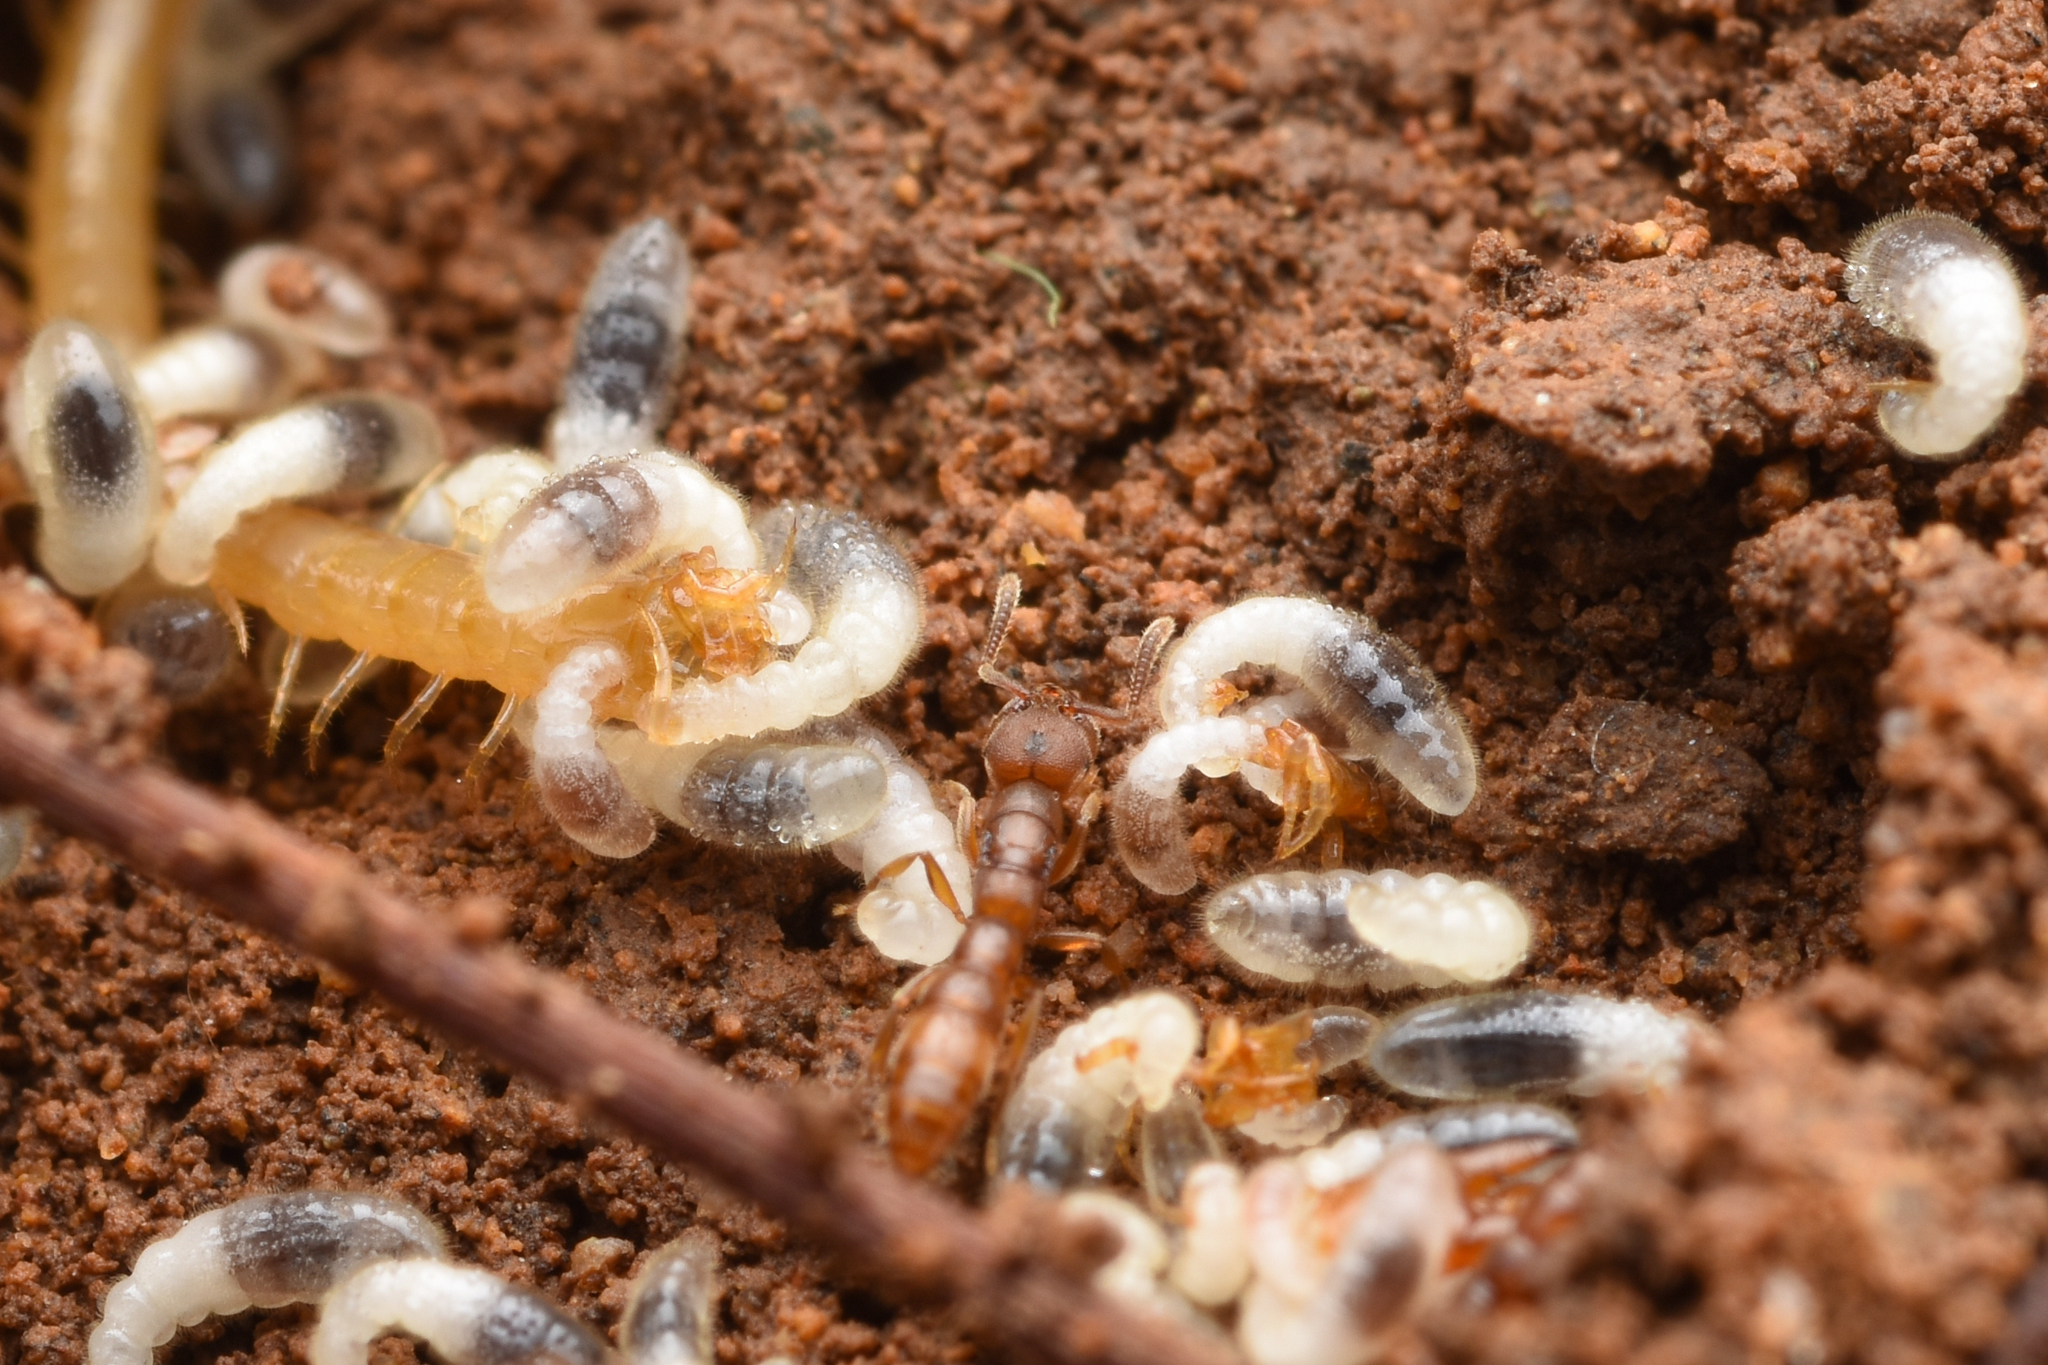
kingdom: Animalia
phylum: Arthropoda
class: Insecta
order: Hymenoptera
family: Formicidae
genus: Stigmatomma
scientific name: Stigmatomma silvestrii
